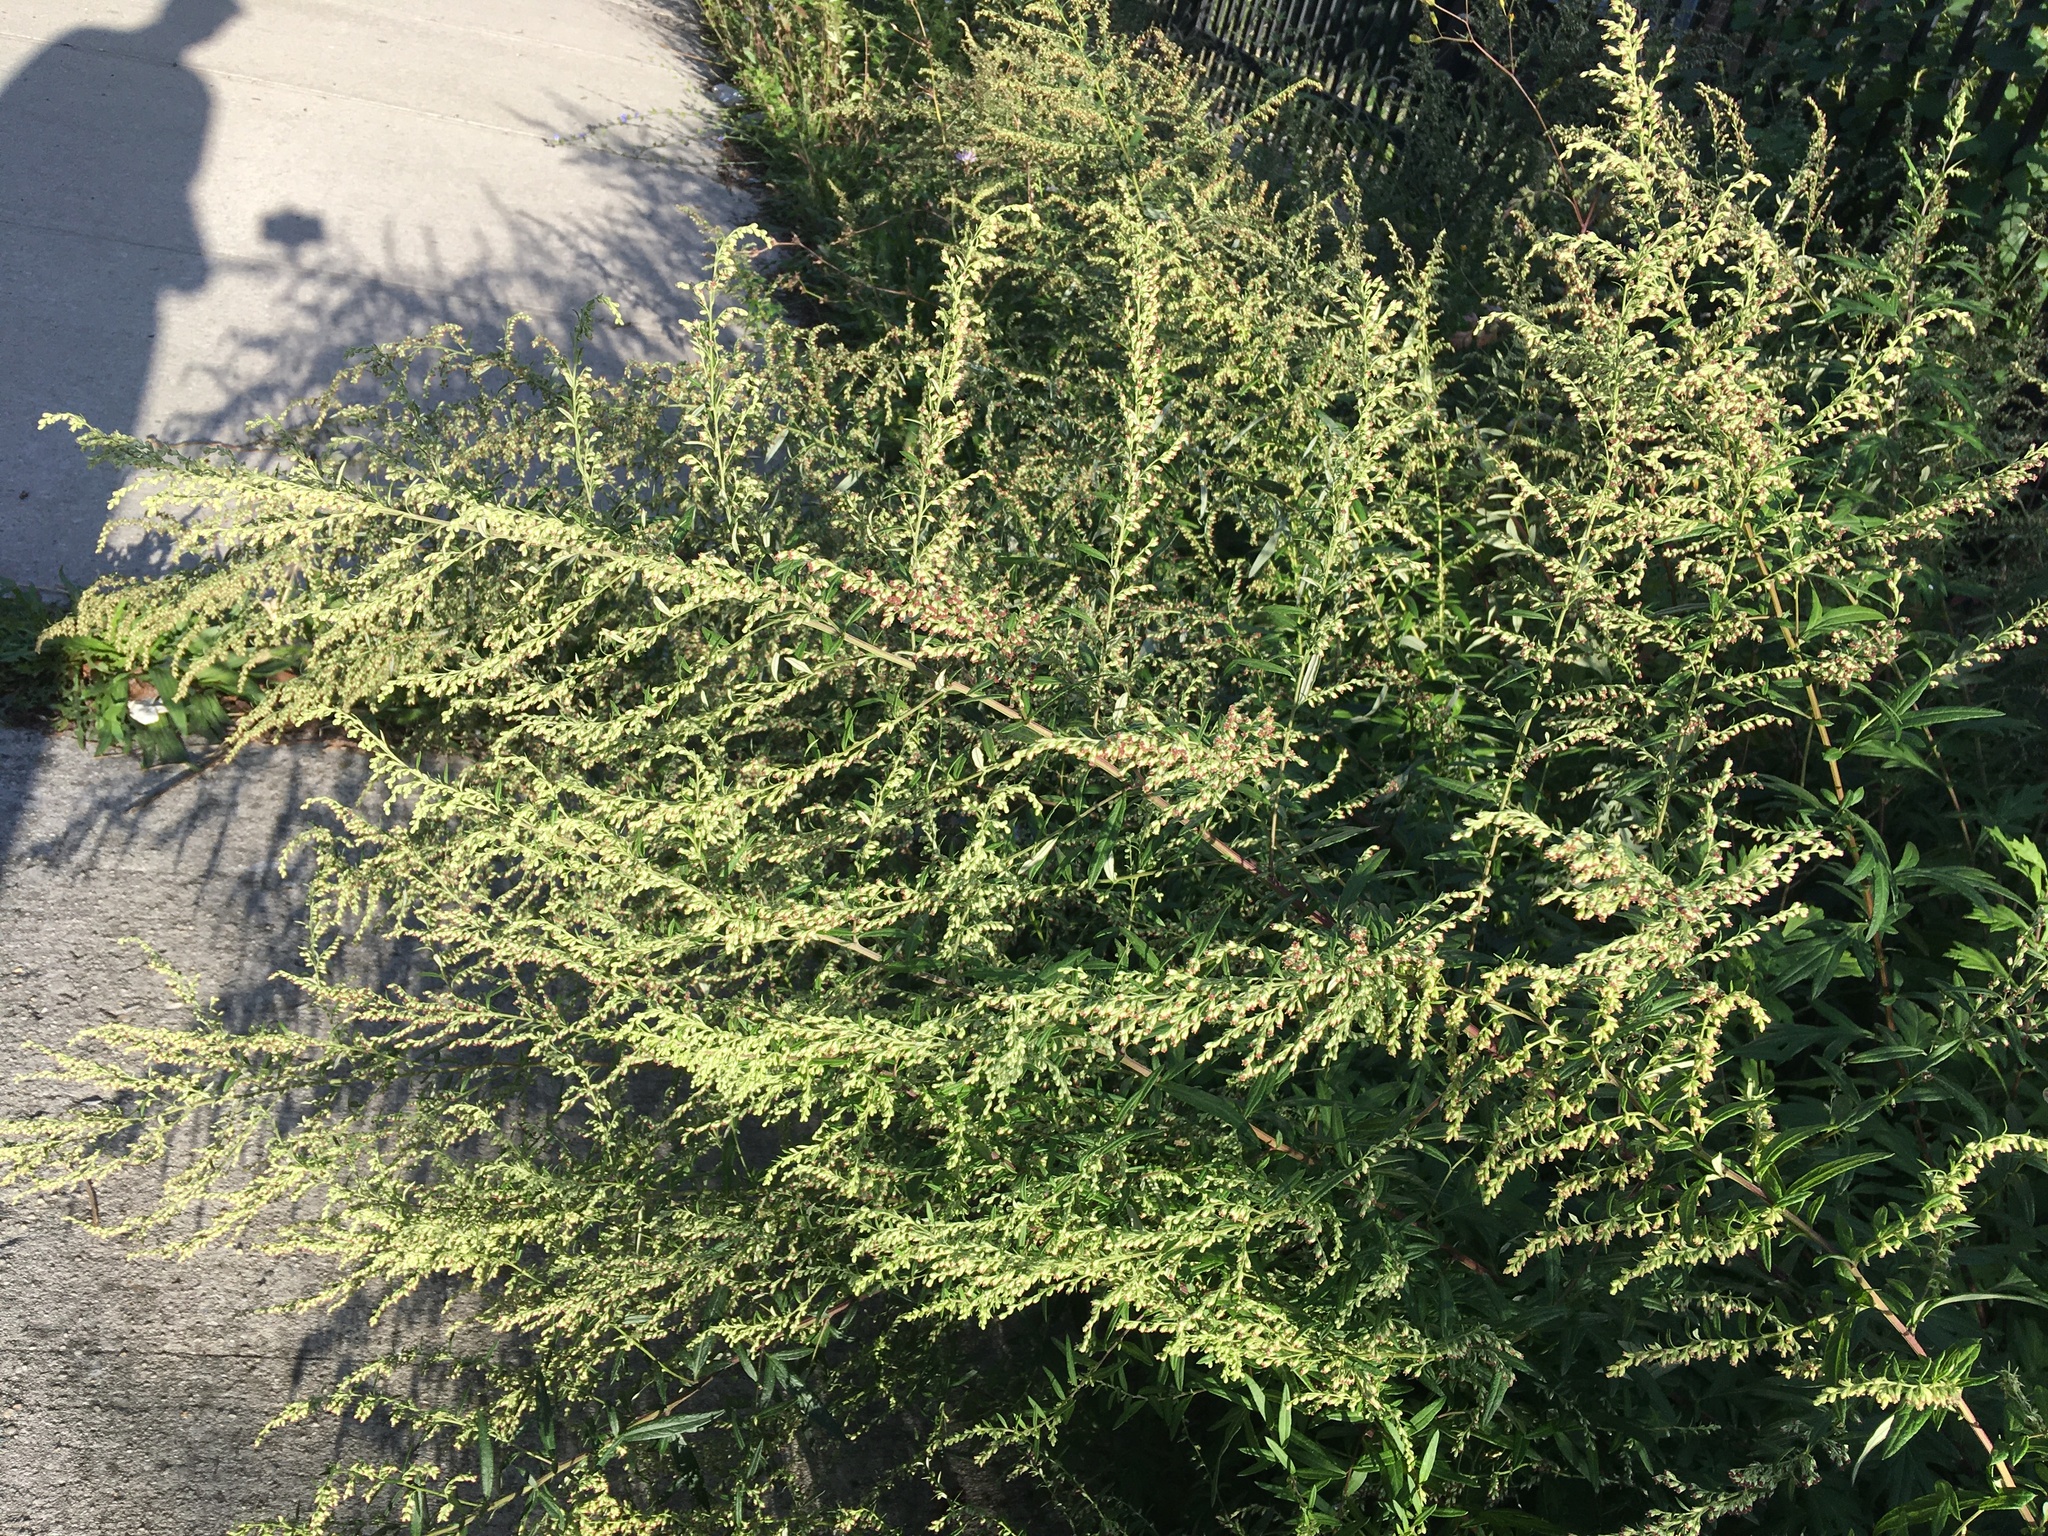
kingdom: Plantae
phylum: Tracheophyta
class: Magnoliopsida
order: Asterales
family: Asteraceae
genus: Artemisia
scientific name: Artemisia vulgaris
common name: Mugwort
